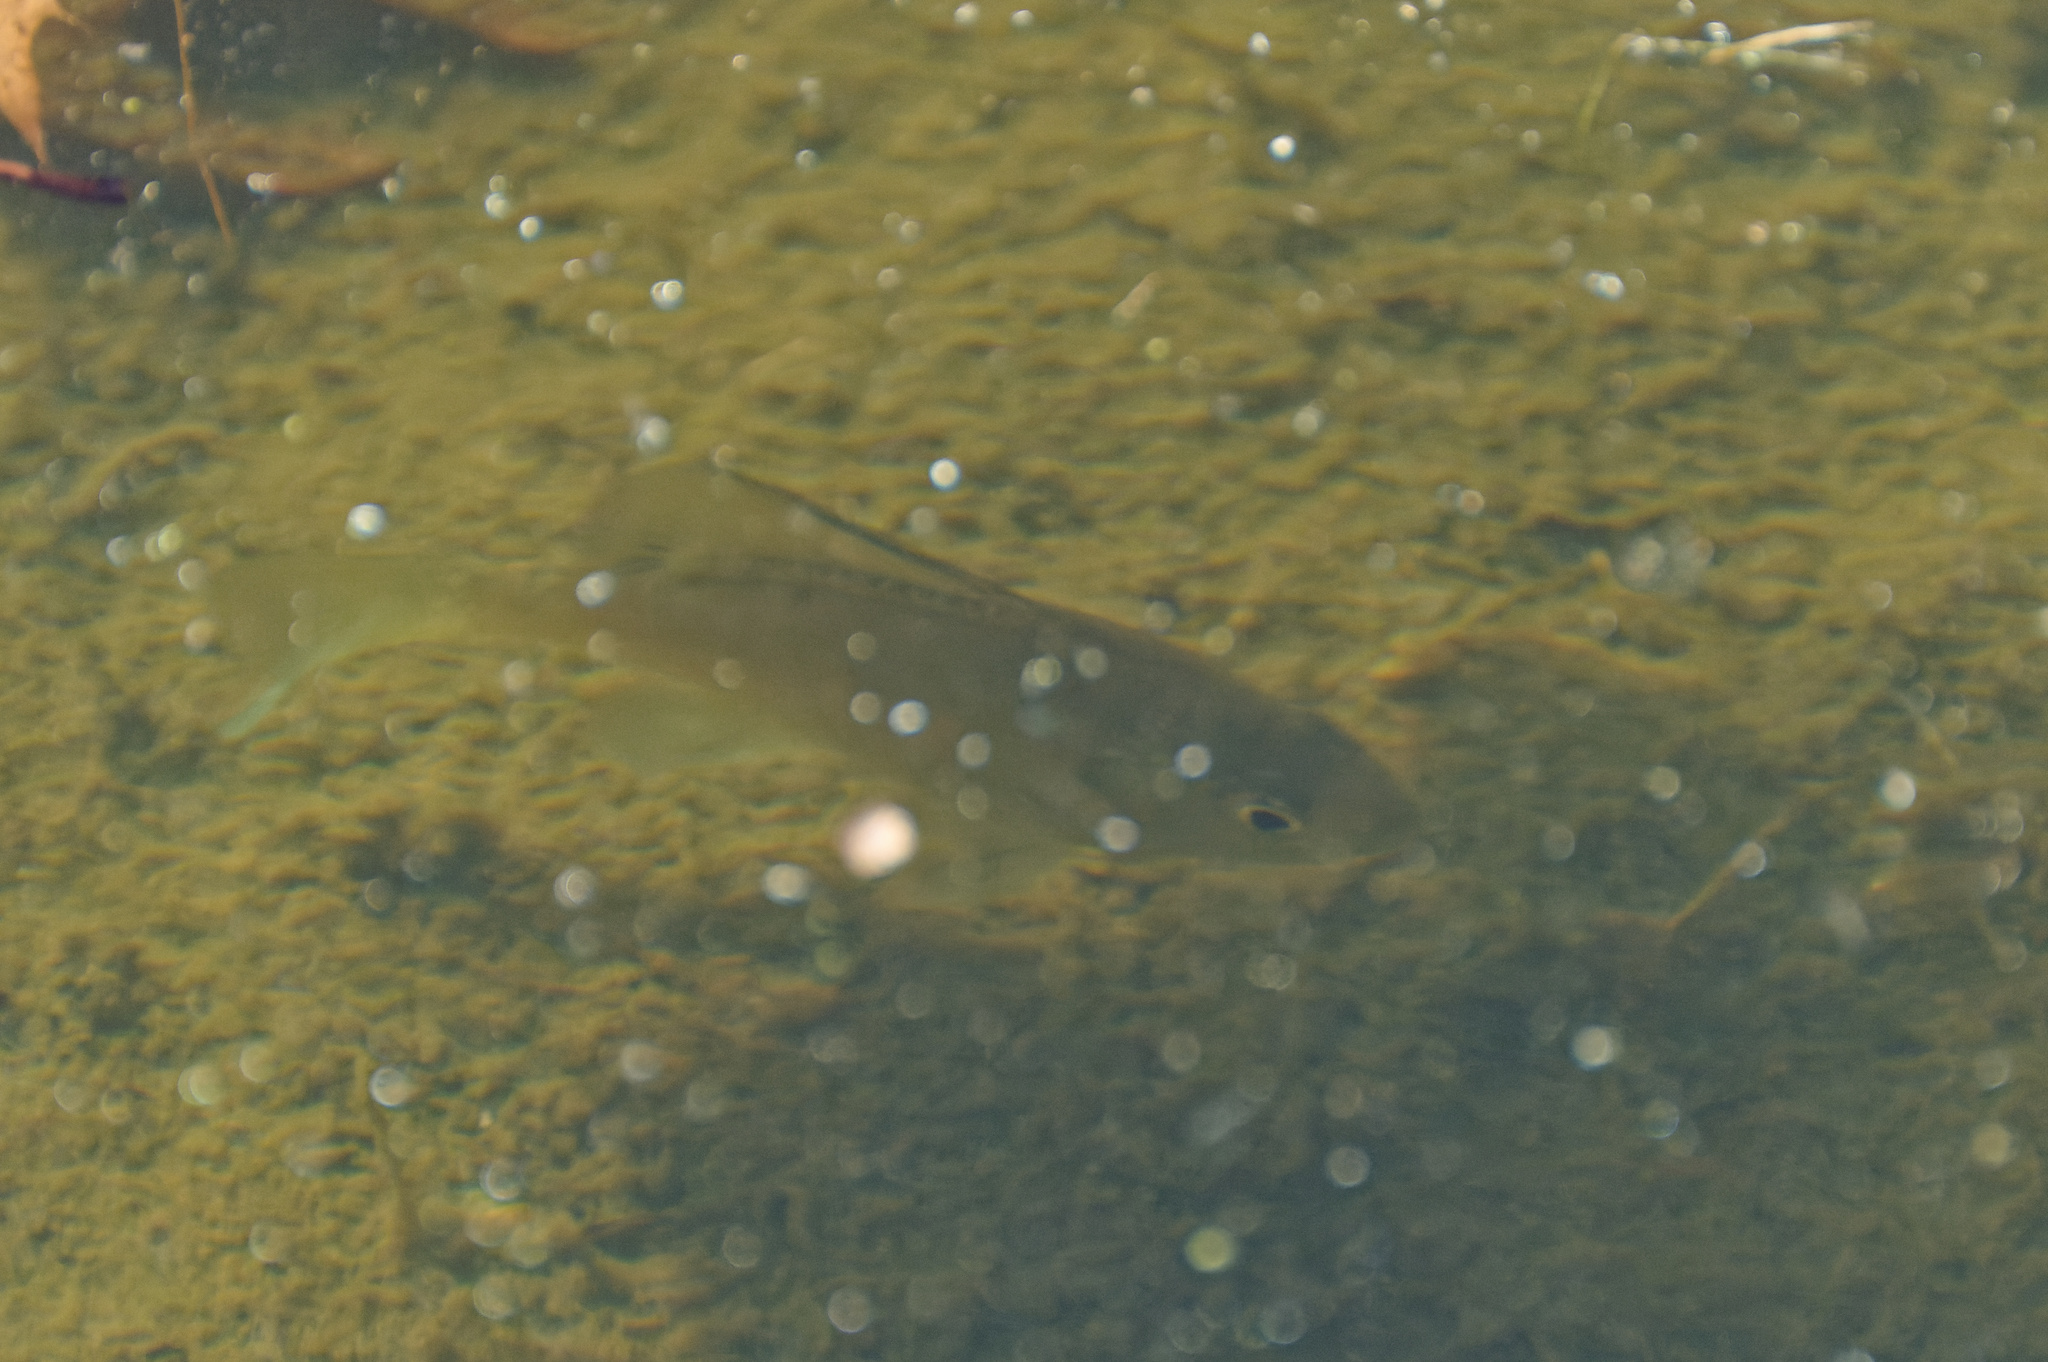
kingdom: Animalia
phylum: Chordata
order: Perciformes
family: Centrarchidae
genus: Lepomis
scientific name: Lepomis macrochirus
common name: Bluegill
